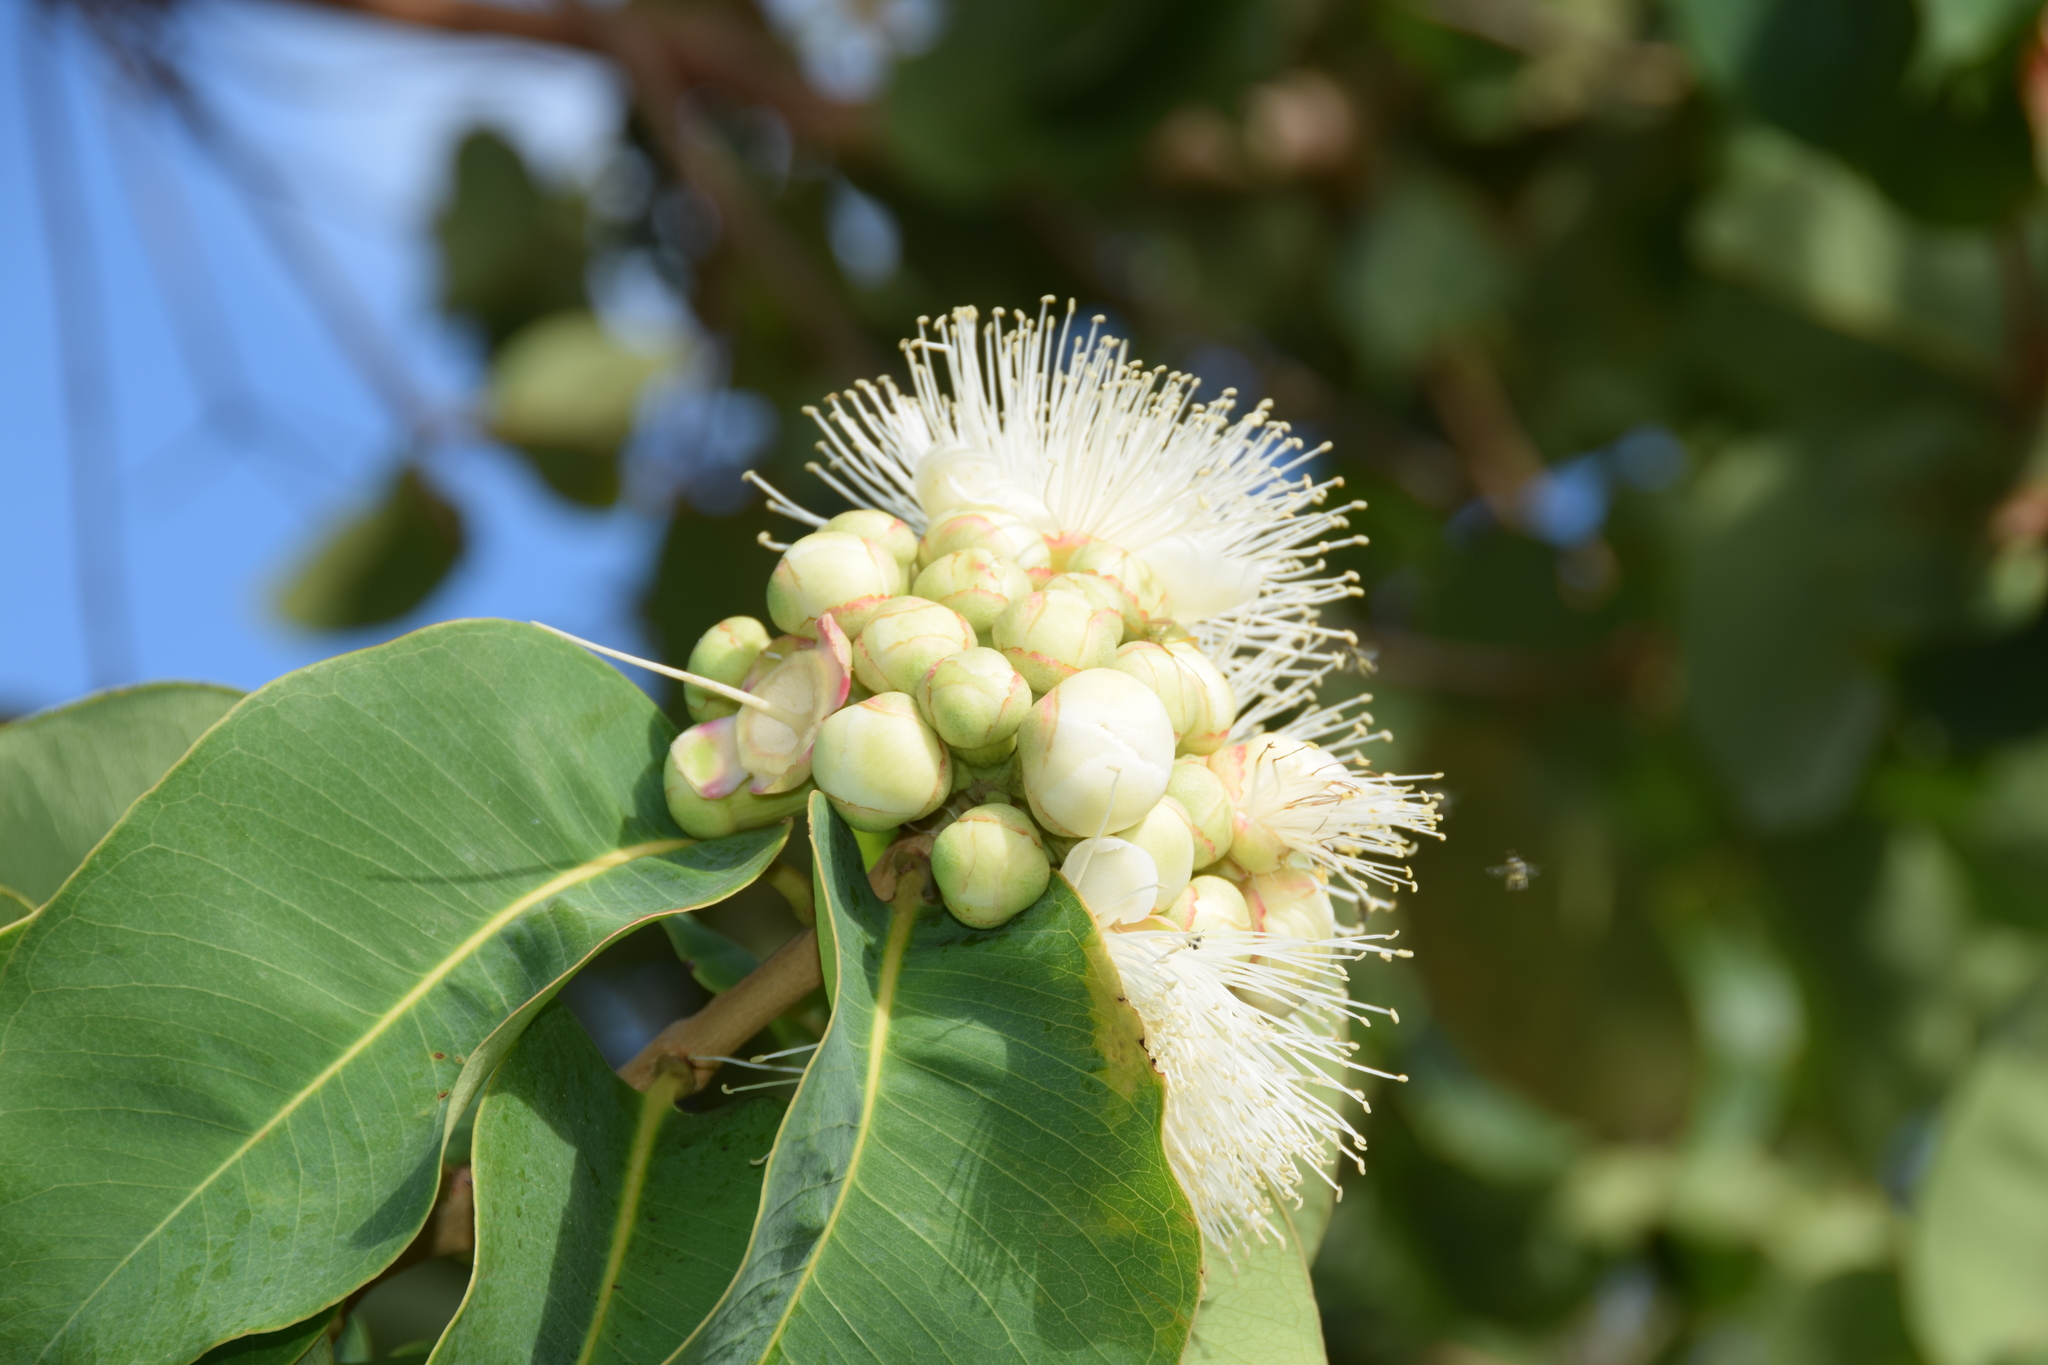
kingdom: Plantae
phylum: Tracheophyta
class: Magnoliopsida
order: Myrtales
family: Myrtaceae
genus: Syzygium
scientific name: Syzygium suborbiculare
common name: Red bush apple
